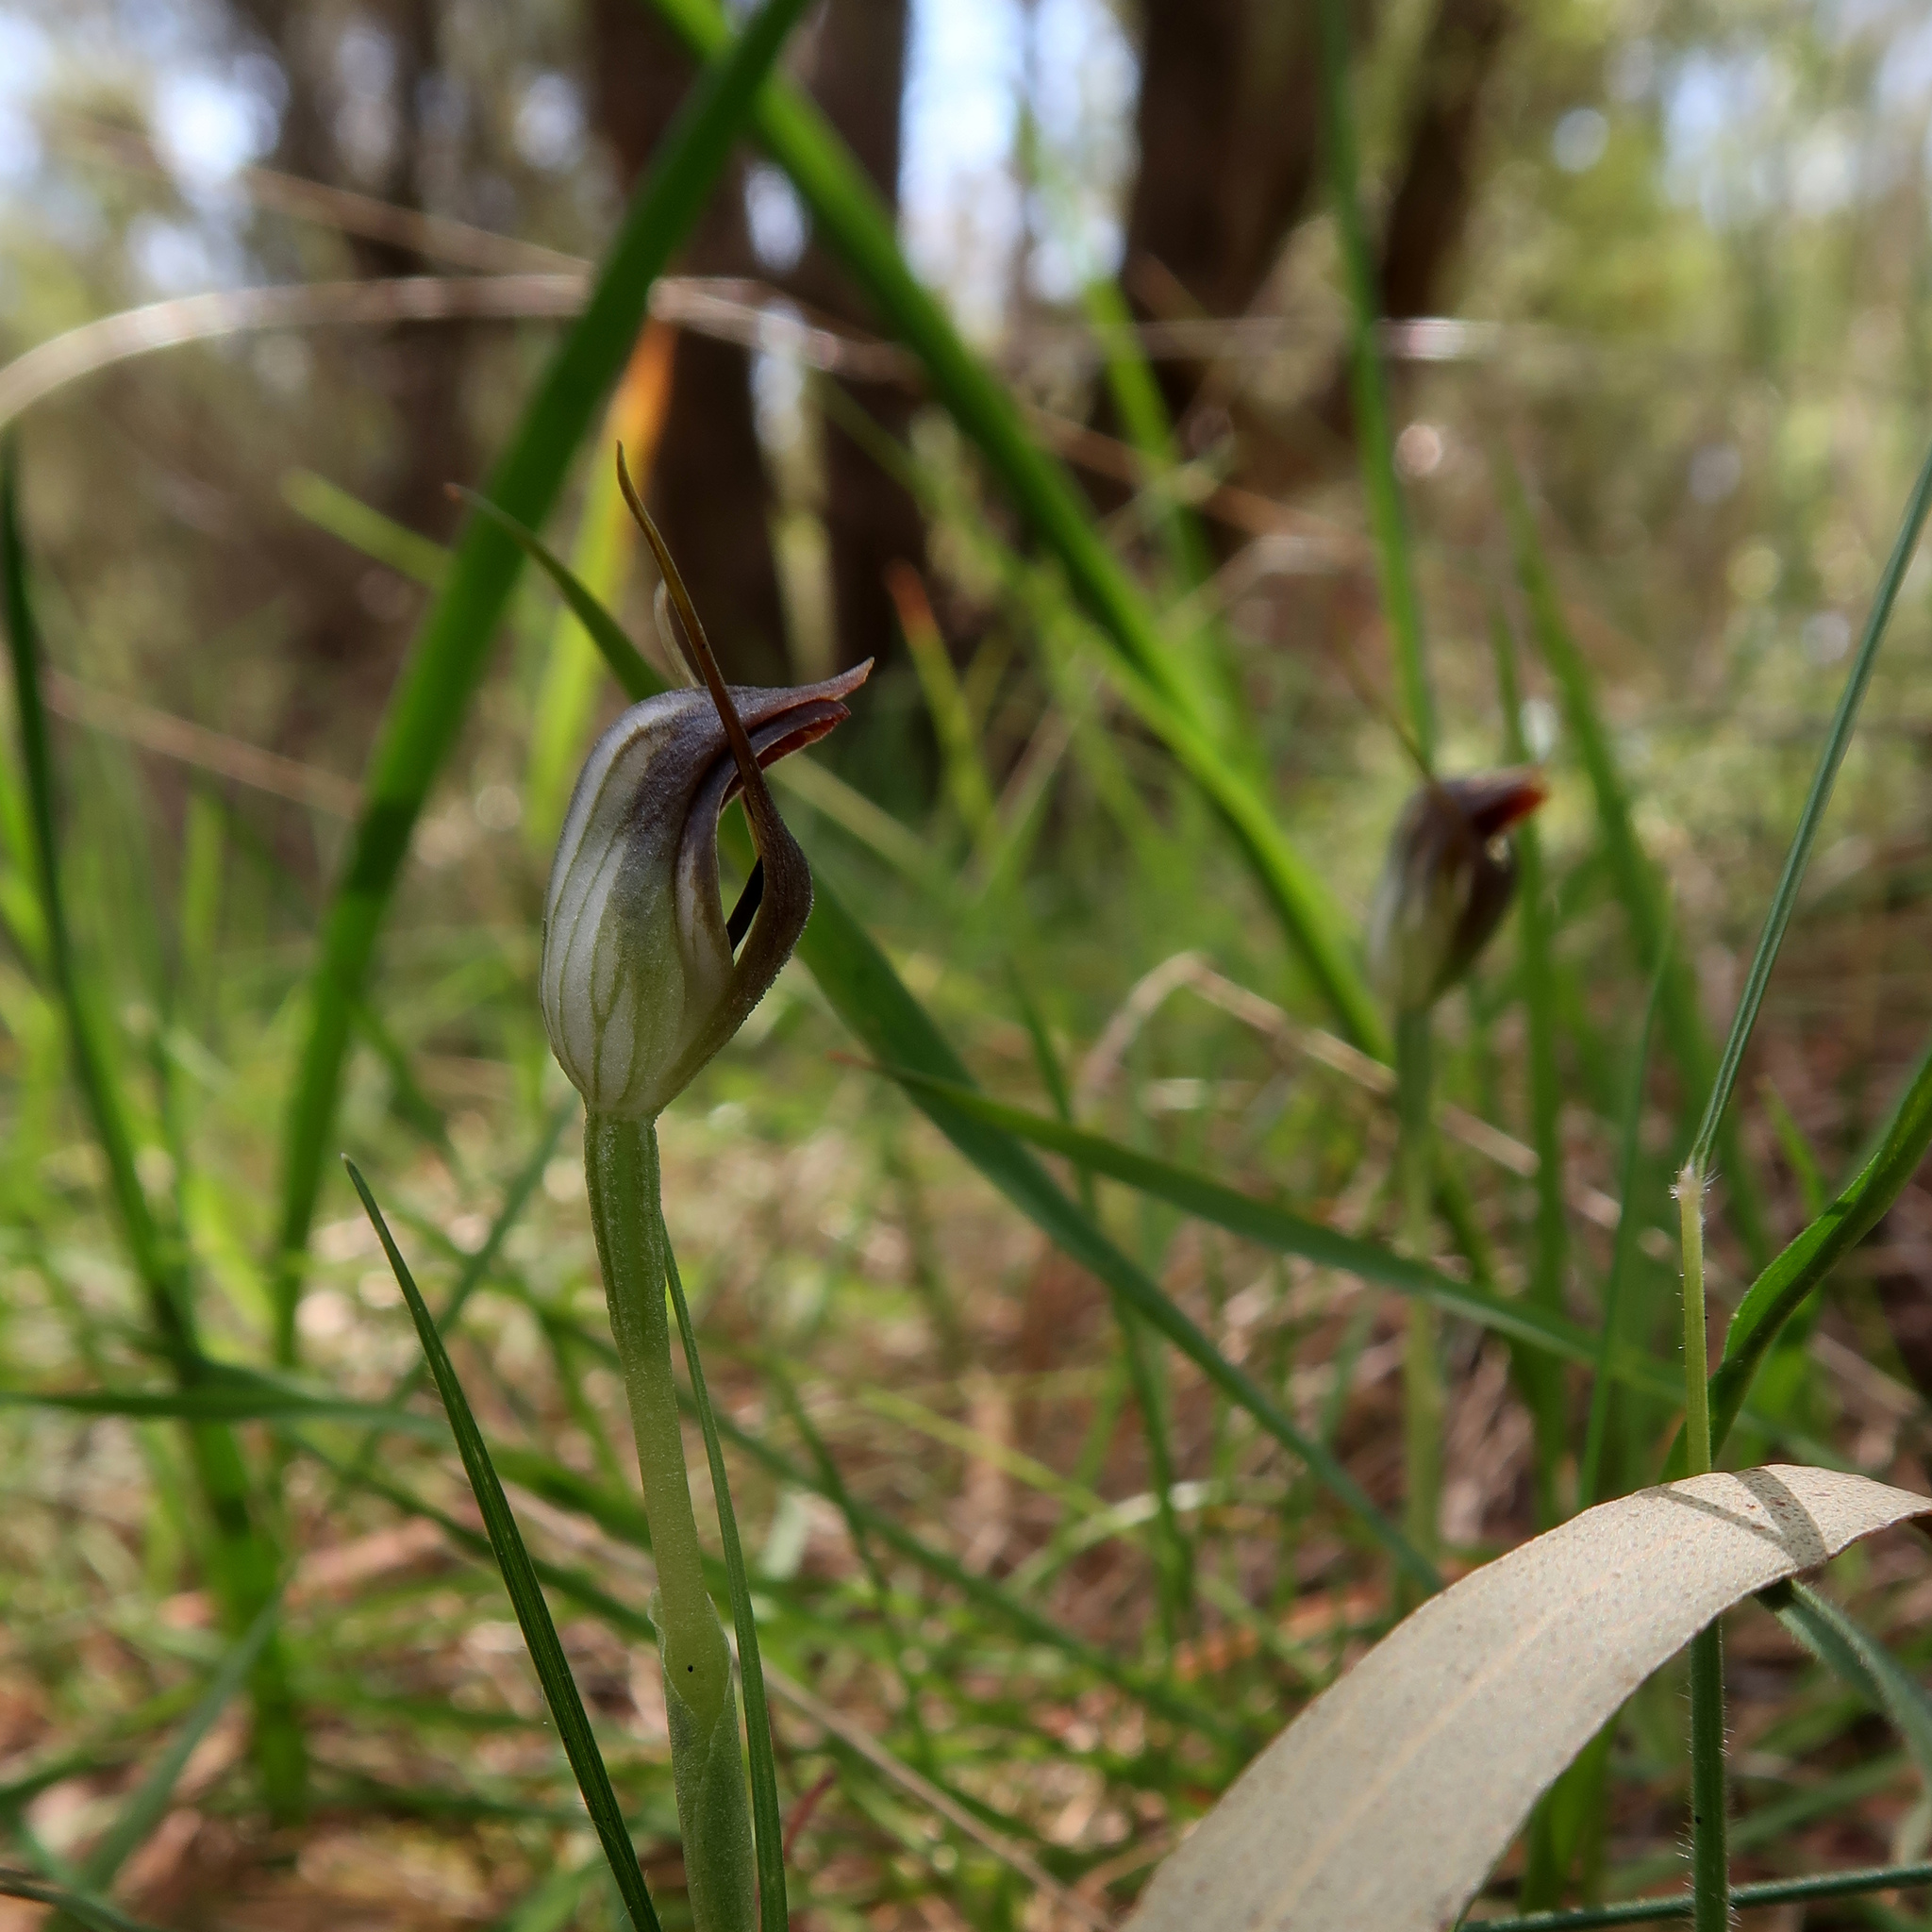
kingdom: Plantae
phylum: Tracheophyta
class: Liliopsida
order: Asparagales
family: Orchidaceae
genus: Pterostylis
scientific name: Pterostylis pedunculata
